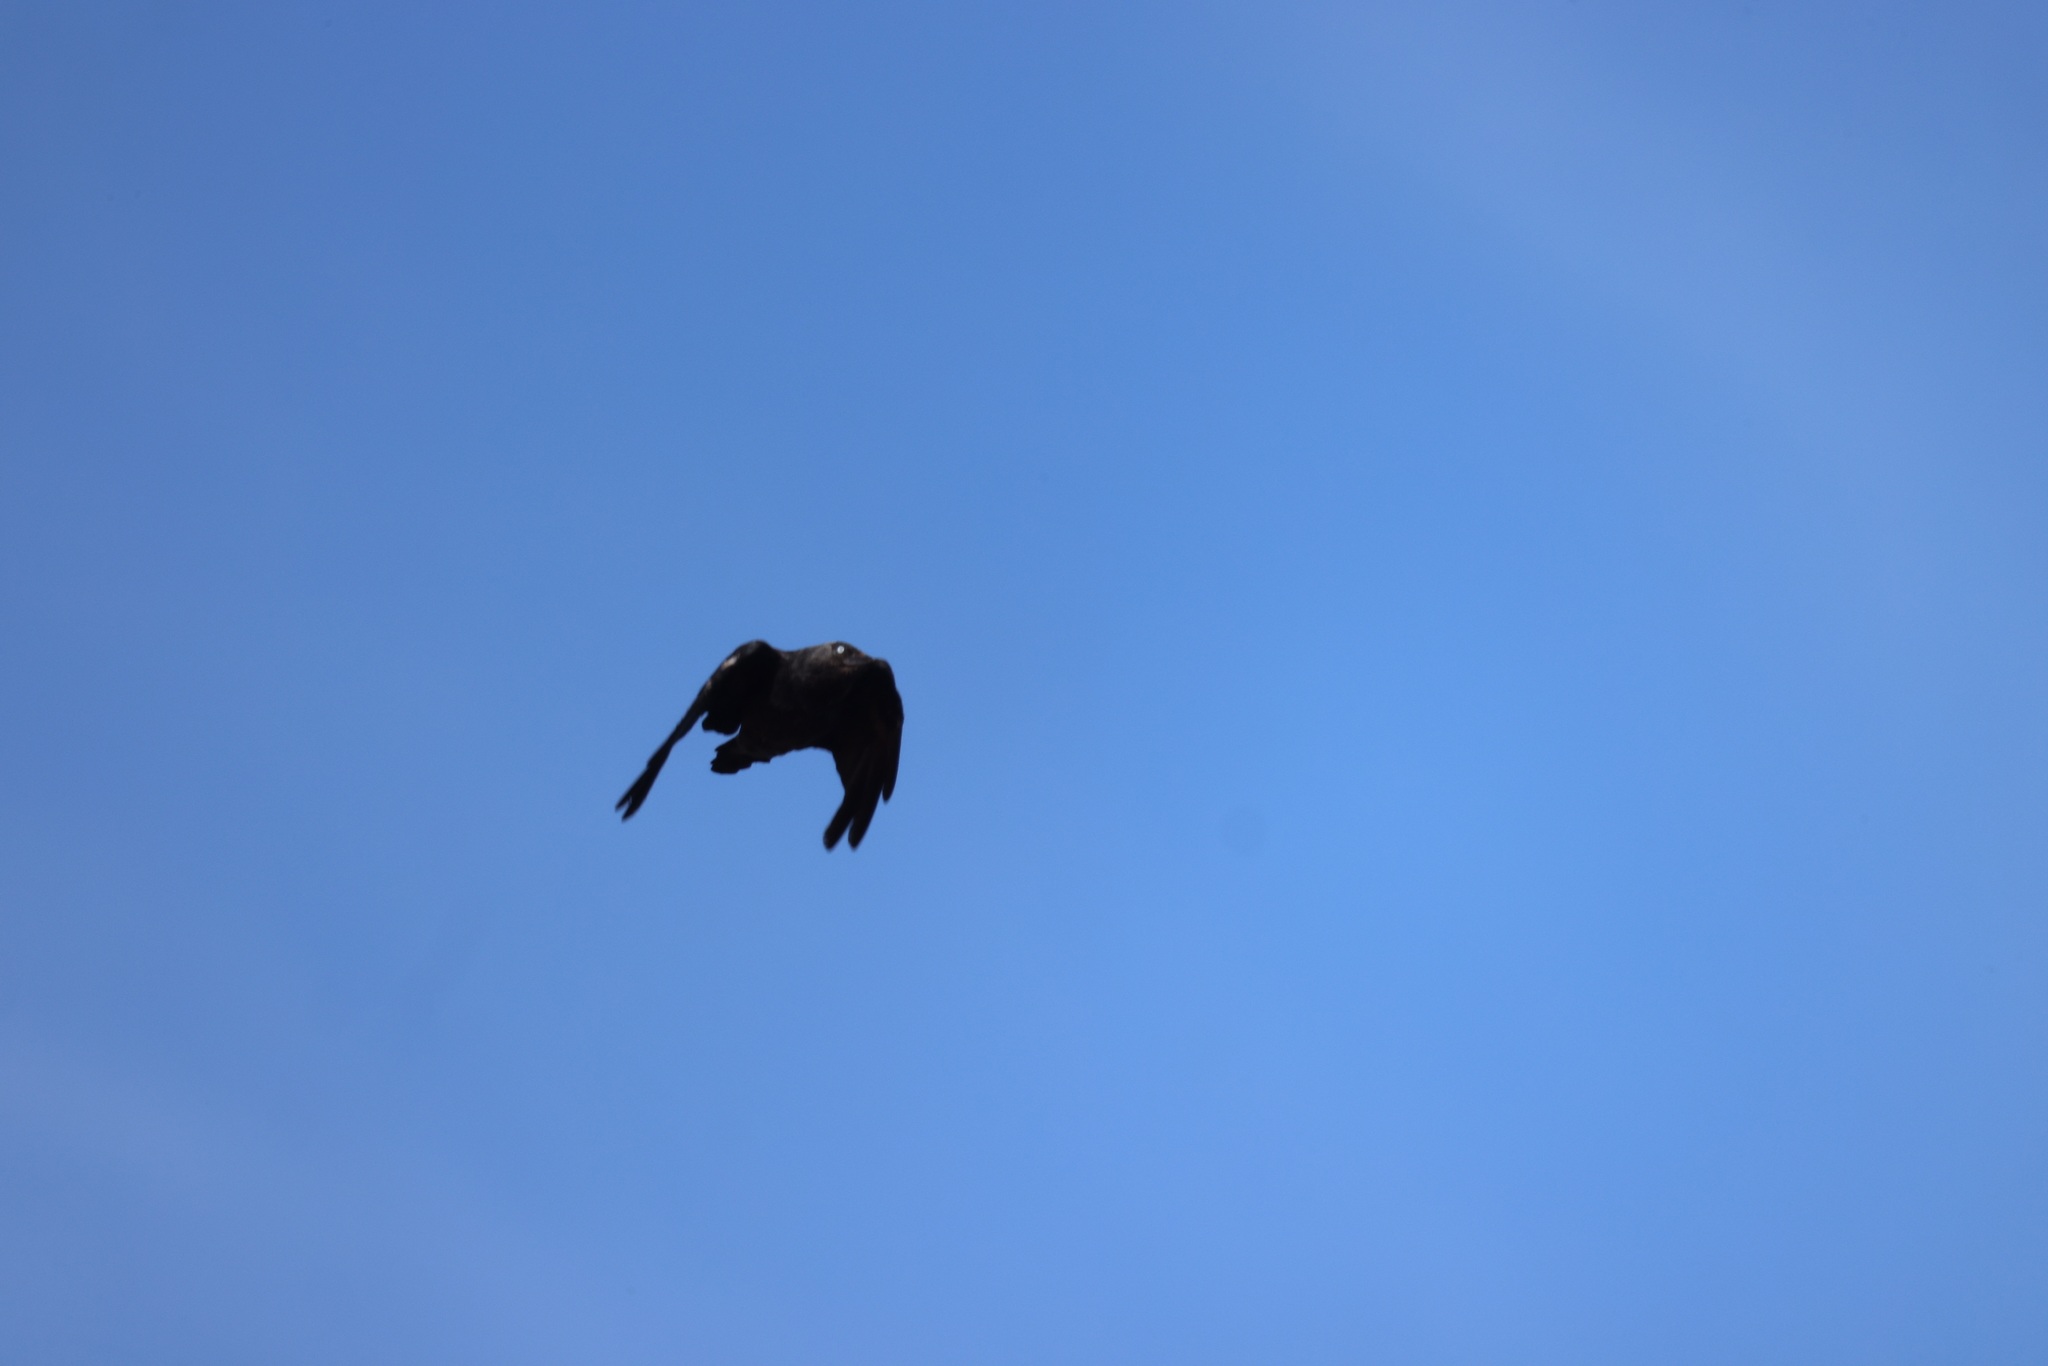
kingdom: Animalia
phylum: Chordata
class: Aves
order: Passeriformes
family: Corvidae
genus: Coloeus
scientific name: Coloeus monedula
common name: Western jackdaw
